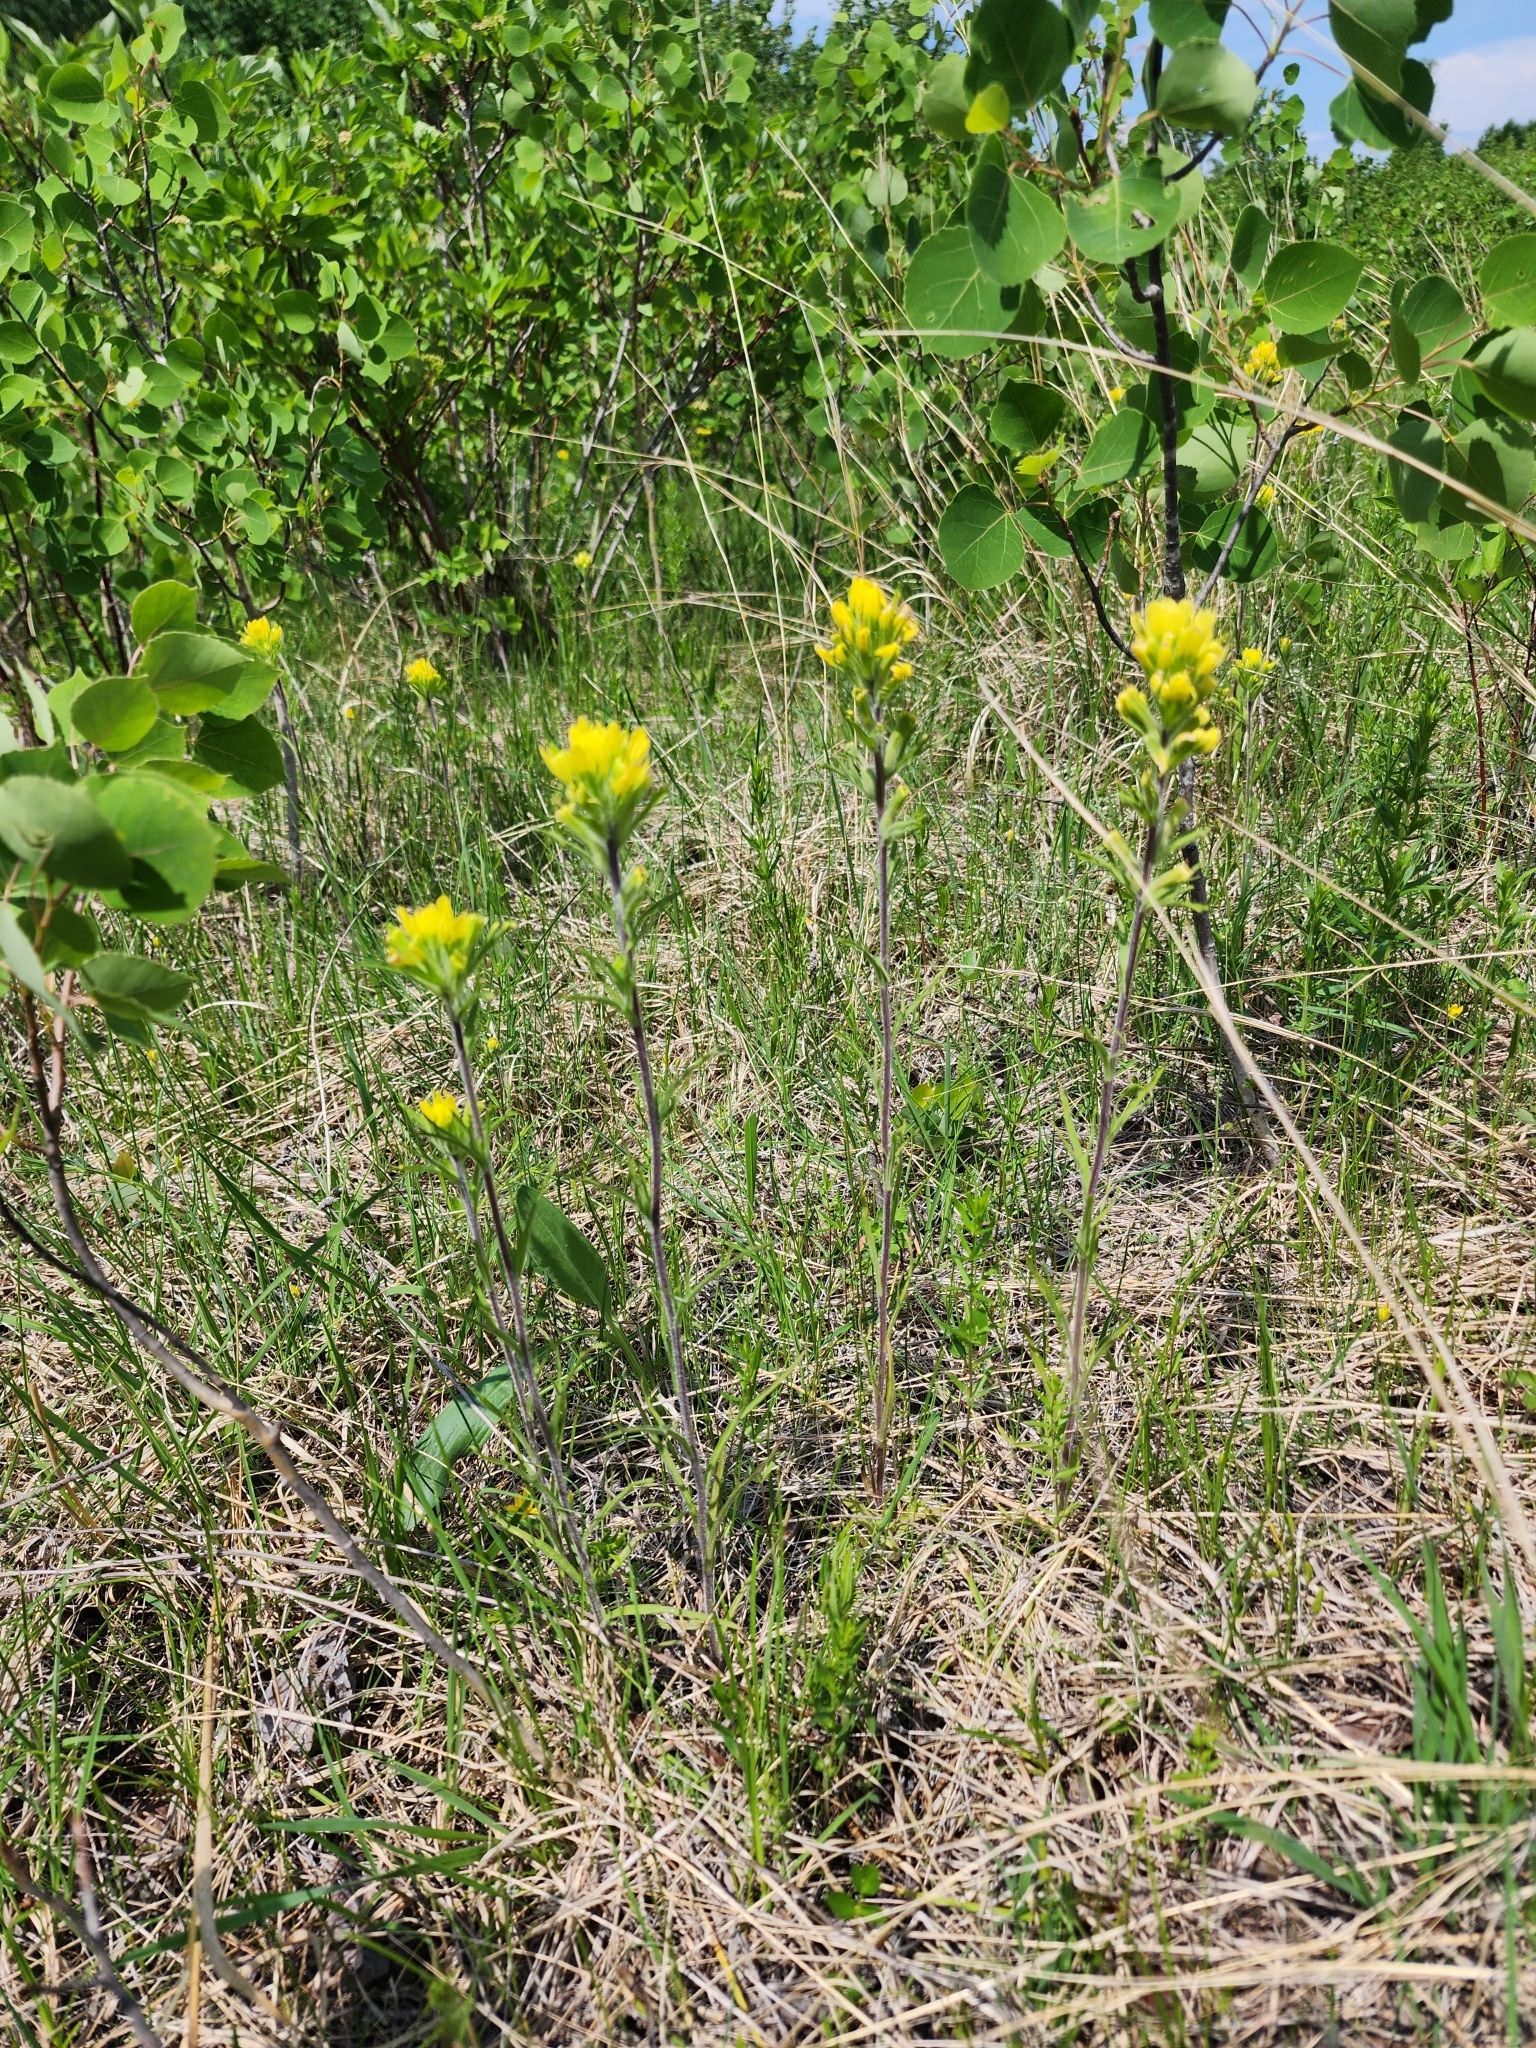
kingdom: Plantae
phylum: Tracheophyta
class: Magnoliopsida
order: Lamiales
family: Orobanchaceae
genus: Castilleja
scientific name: Castilleja coccinea
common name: Scarlet paintbrush
